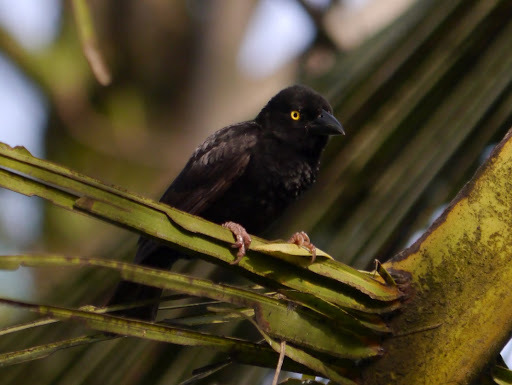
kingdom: Animalia
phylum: Chordata
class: Aves
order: Passeriformes
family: Ploceidae
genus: Ploceus
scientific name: Ploceus nigerrimus
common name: Vieillot's black weaver
